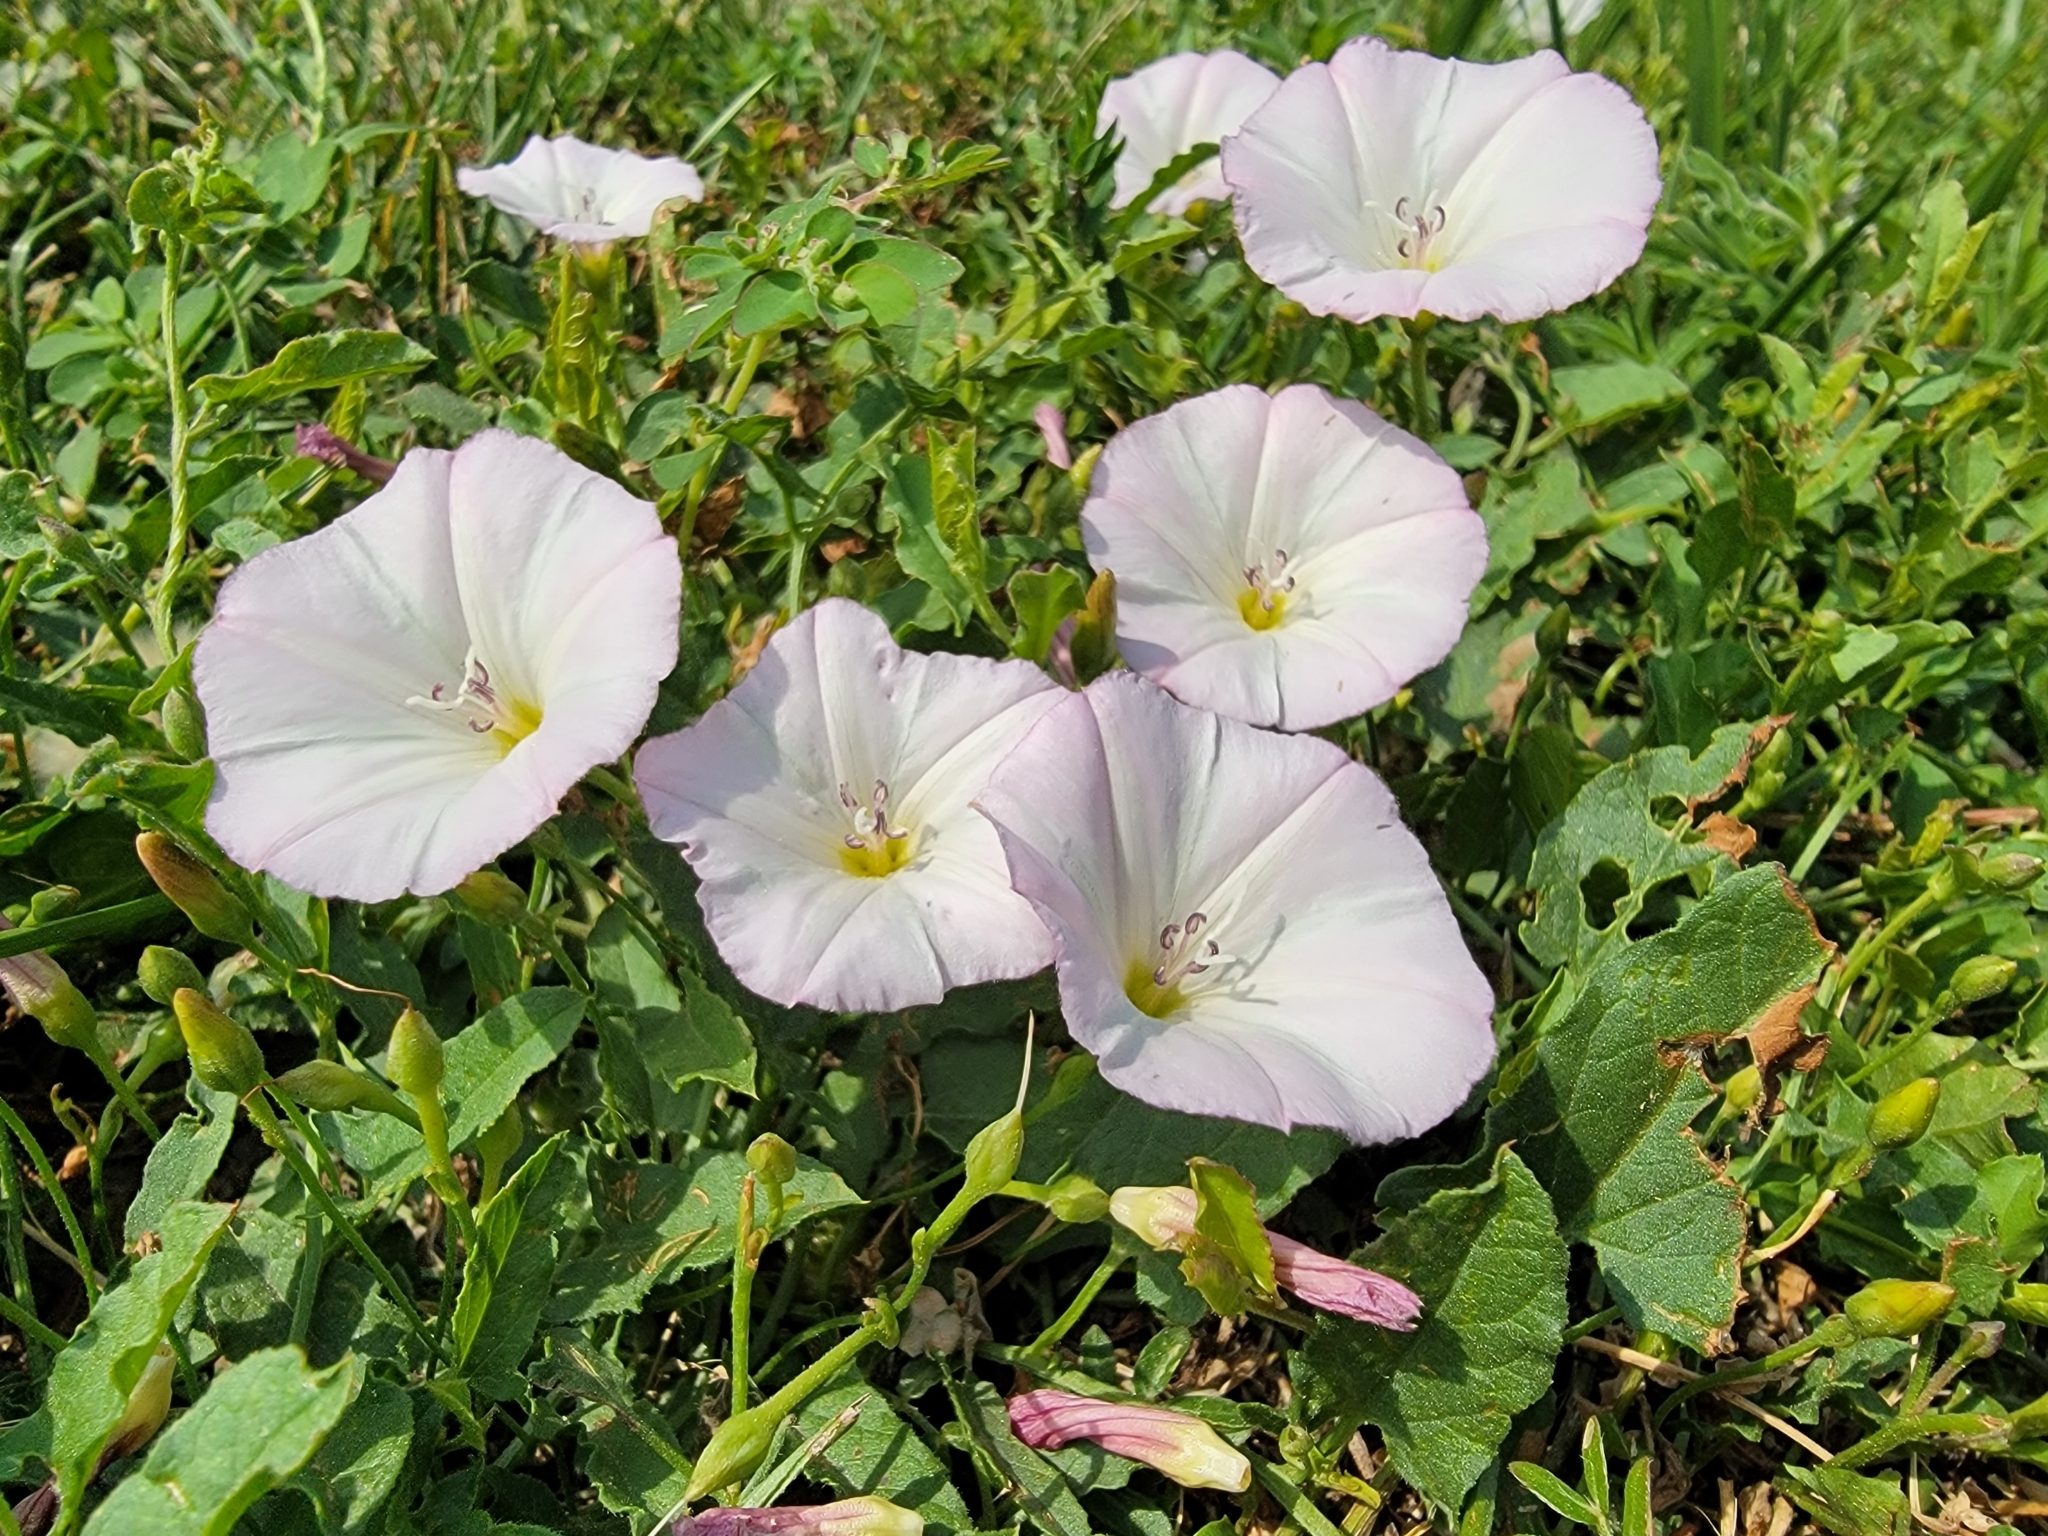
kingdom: Plantae
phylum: Tracheophyta
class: Magnoliopsida
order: Solanales
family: Convolvulaceae
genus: Convolvulus
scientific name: Convolvulus arvensis
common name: Field bindweed
